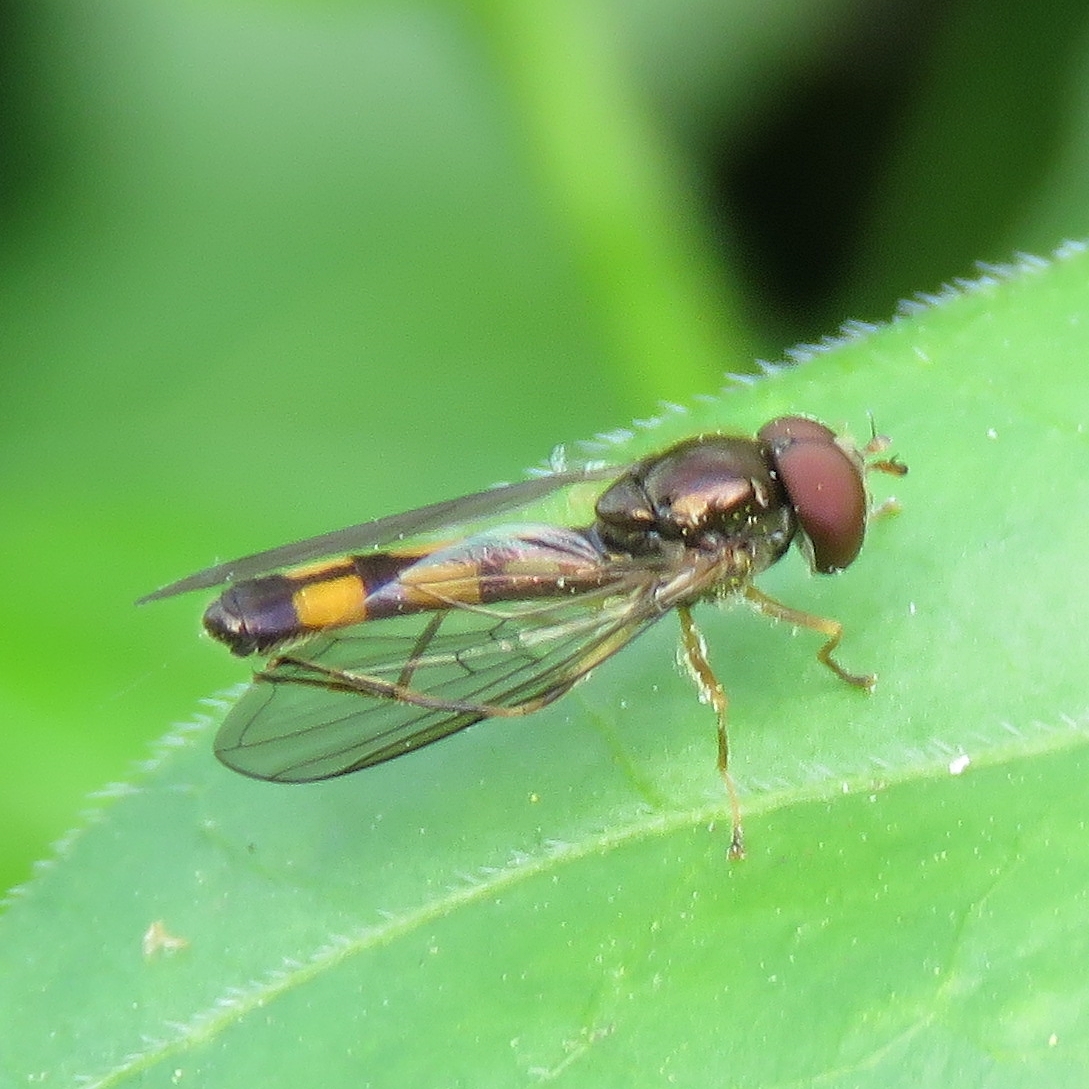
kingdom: Animalia
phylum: Arthropoda
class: Insecta
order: Diptera
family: Syrphidae
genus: Melanostoma
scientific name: Melanostoma scalare
